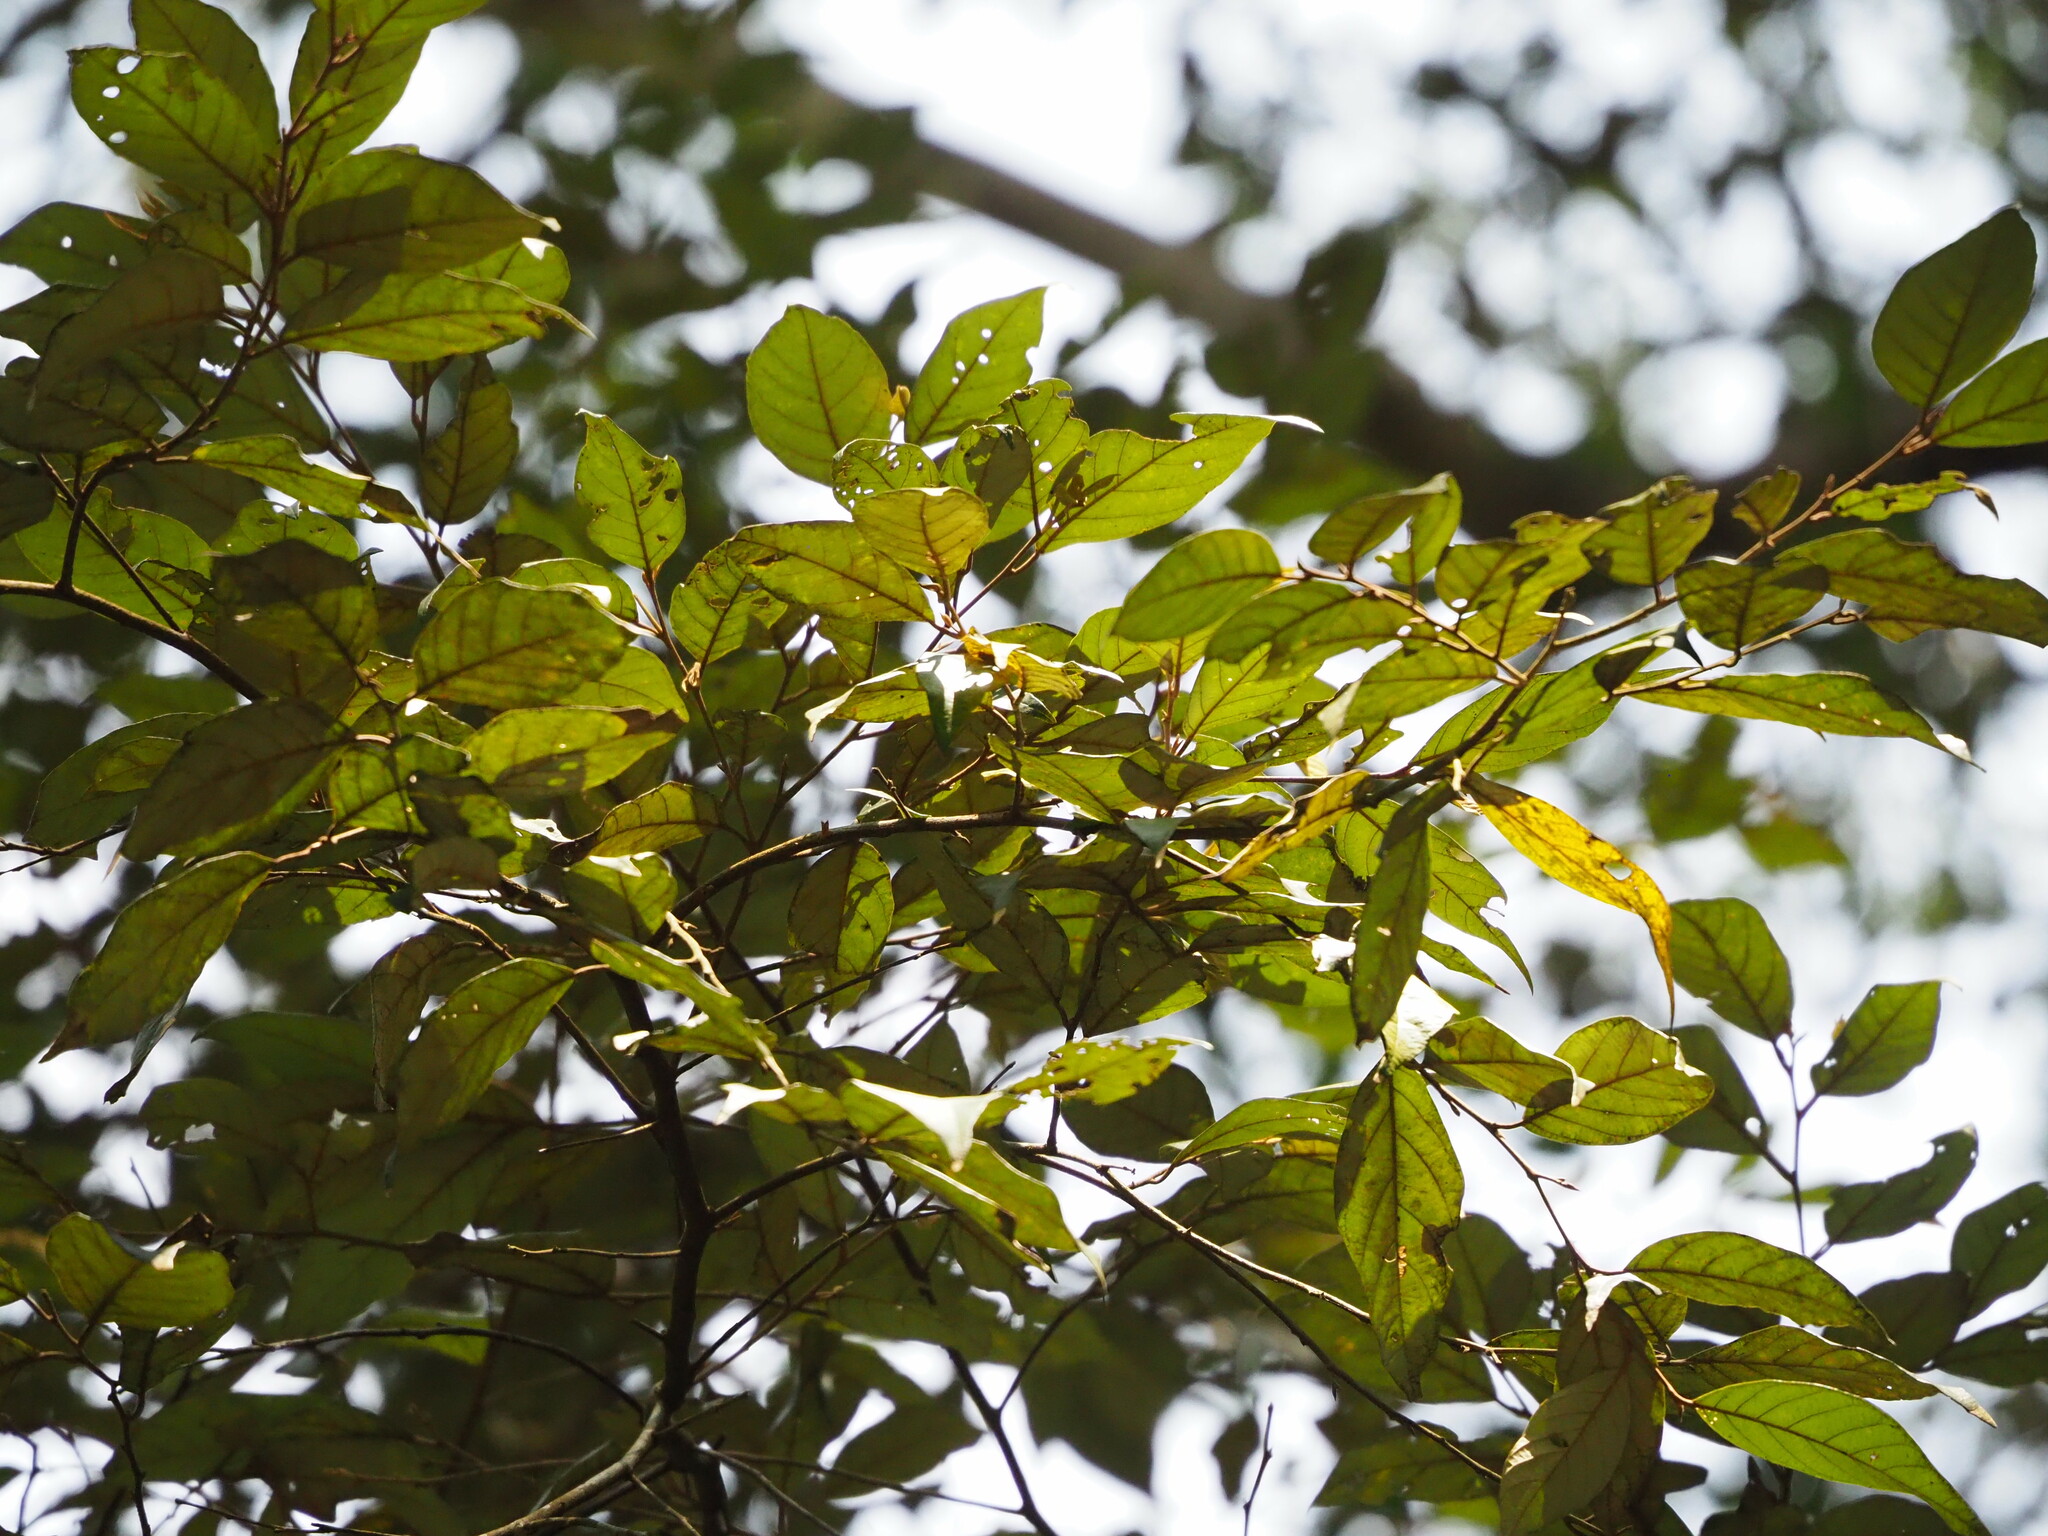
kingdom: Plantae
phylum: Tracheophyta
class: Magnoliopsida
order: Ericales
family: Styracaceae
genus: Styrax
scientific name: Styrax suberifolius
